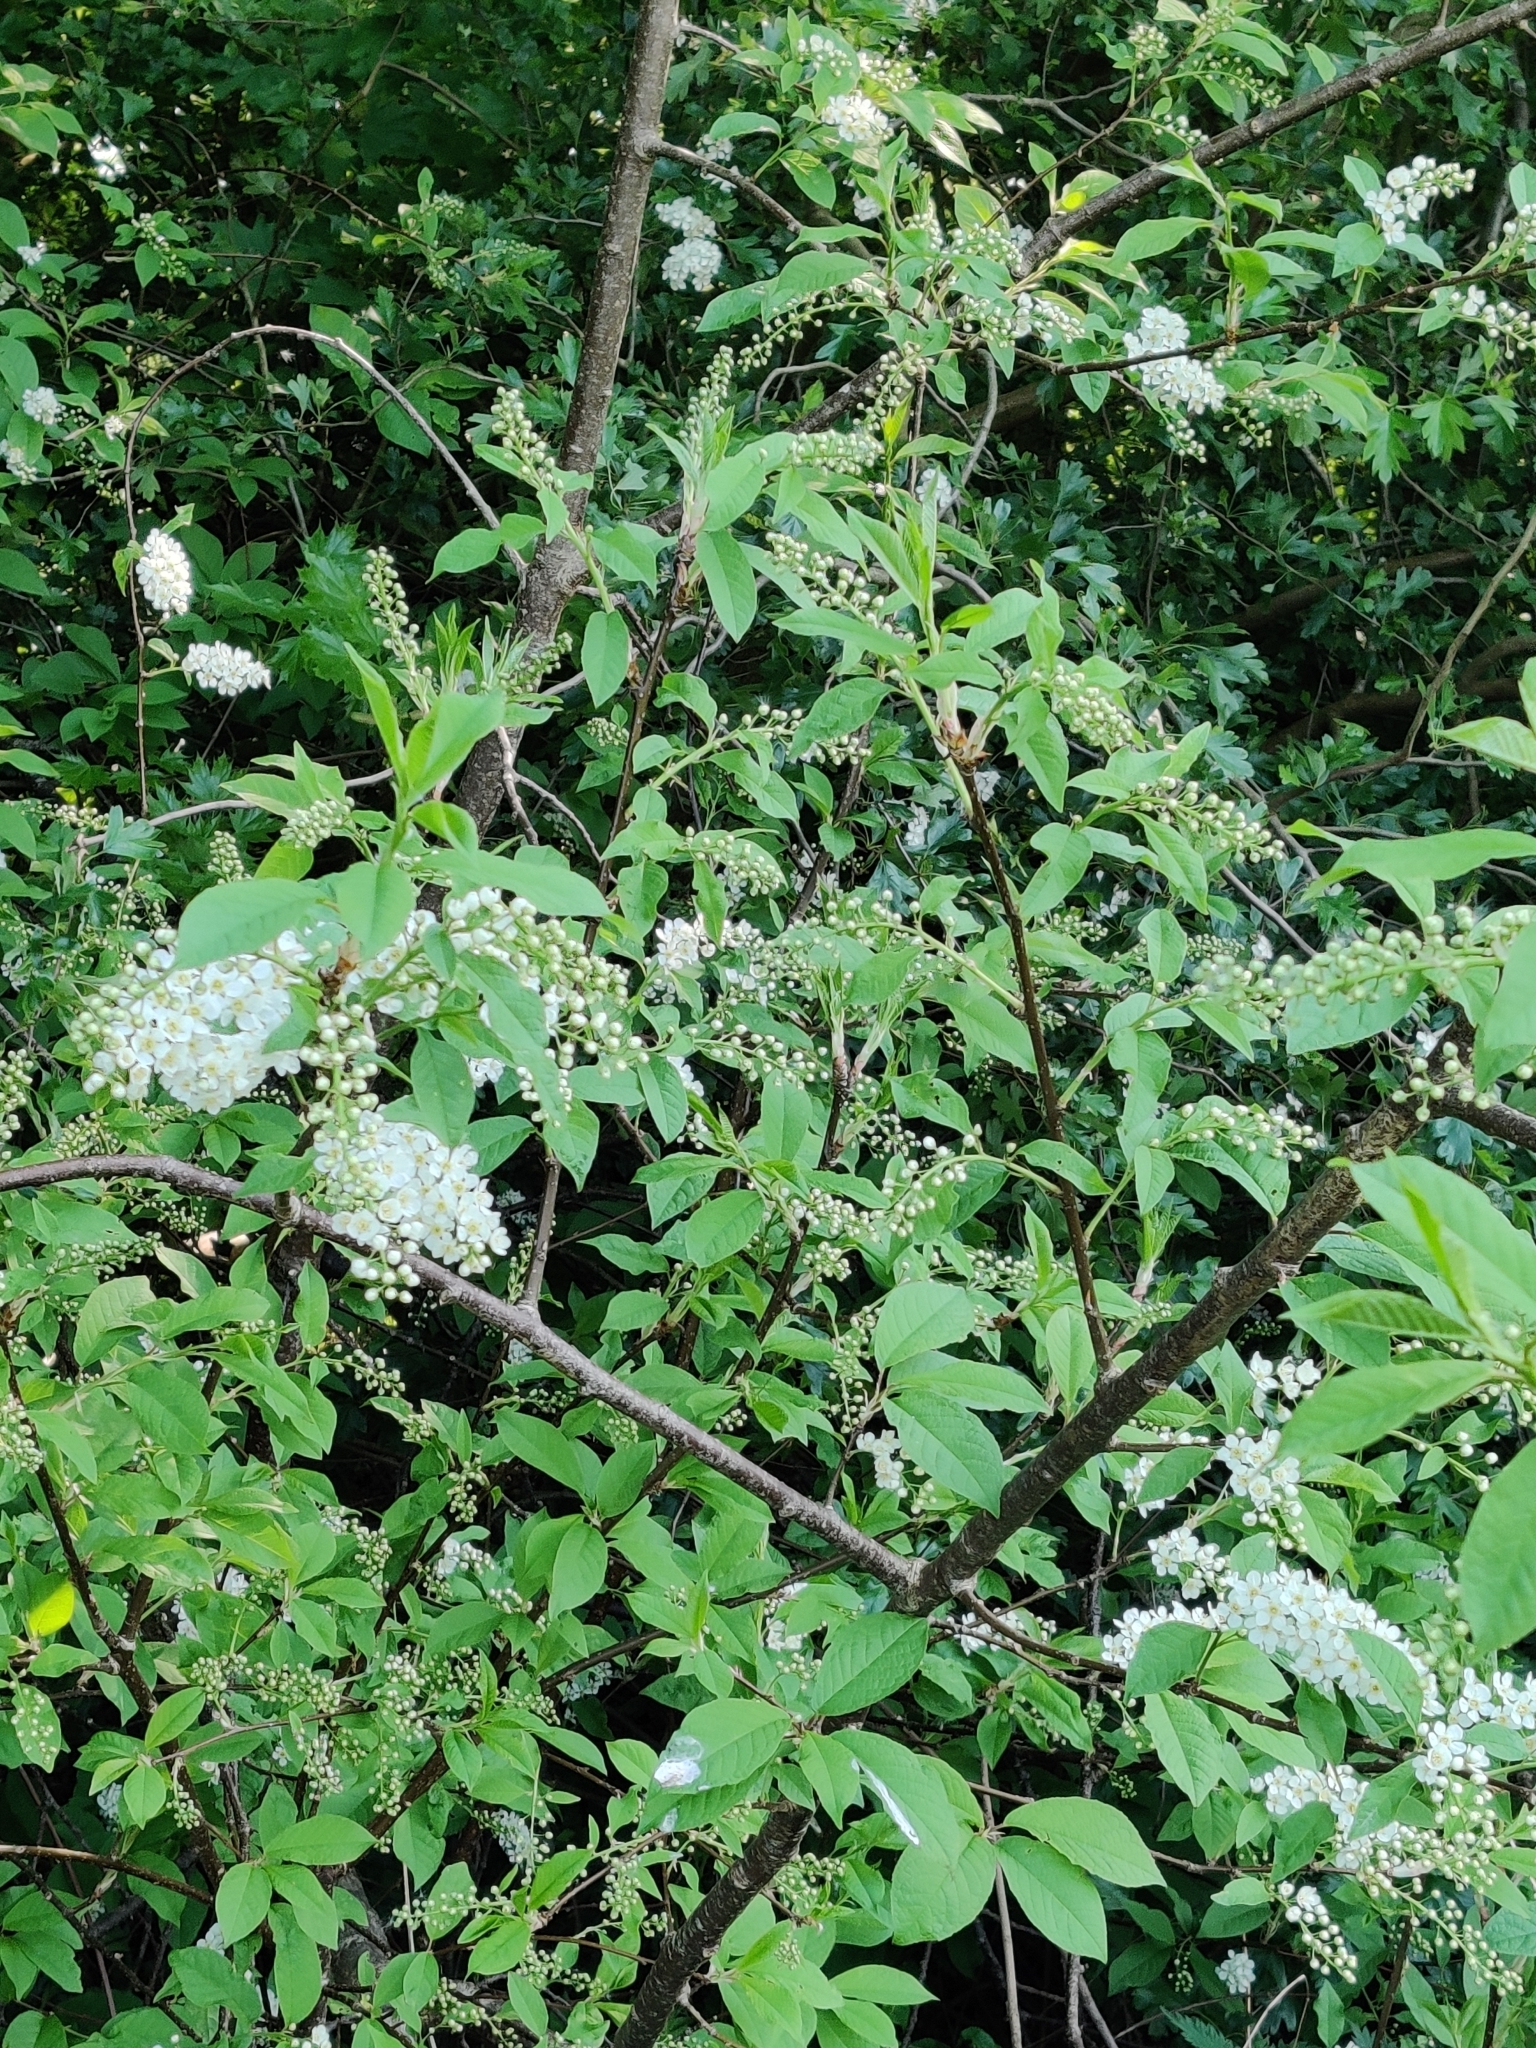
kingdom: Plantae
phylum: Tracheophyta
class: Magnoliopsida
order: Lamiales
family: Oleaceae
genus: Ligustrum
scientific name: Ligustrum vulgare
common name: Wild privet
